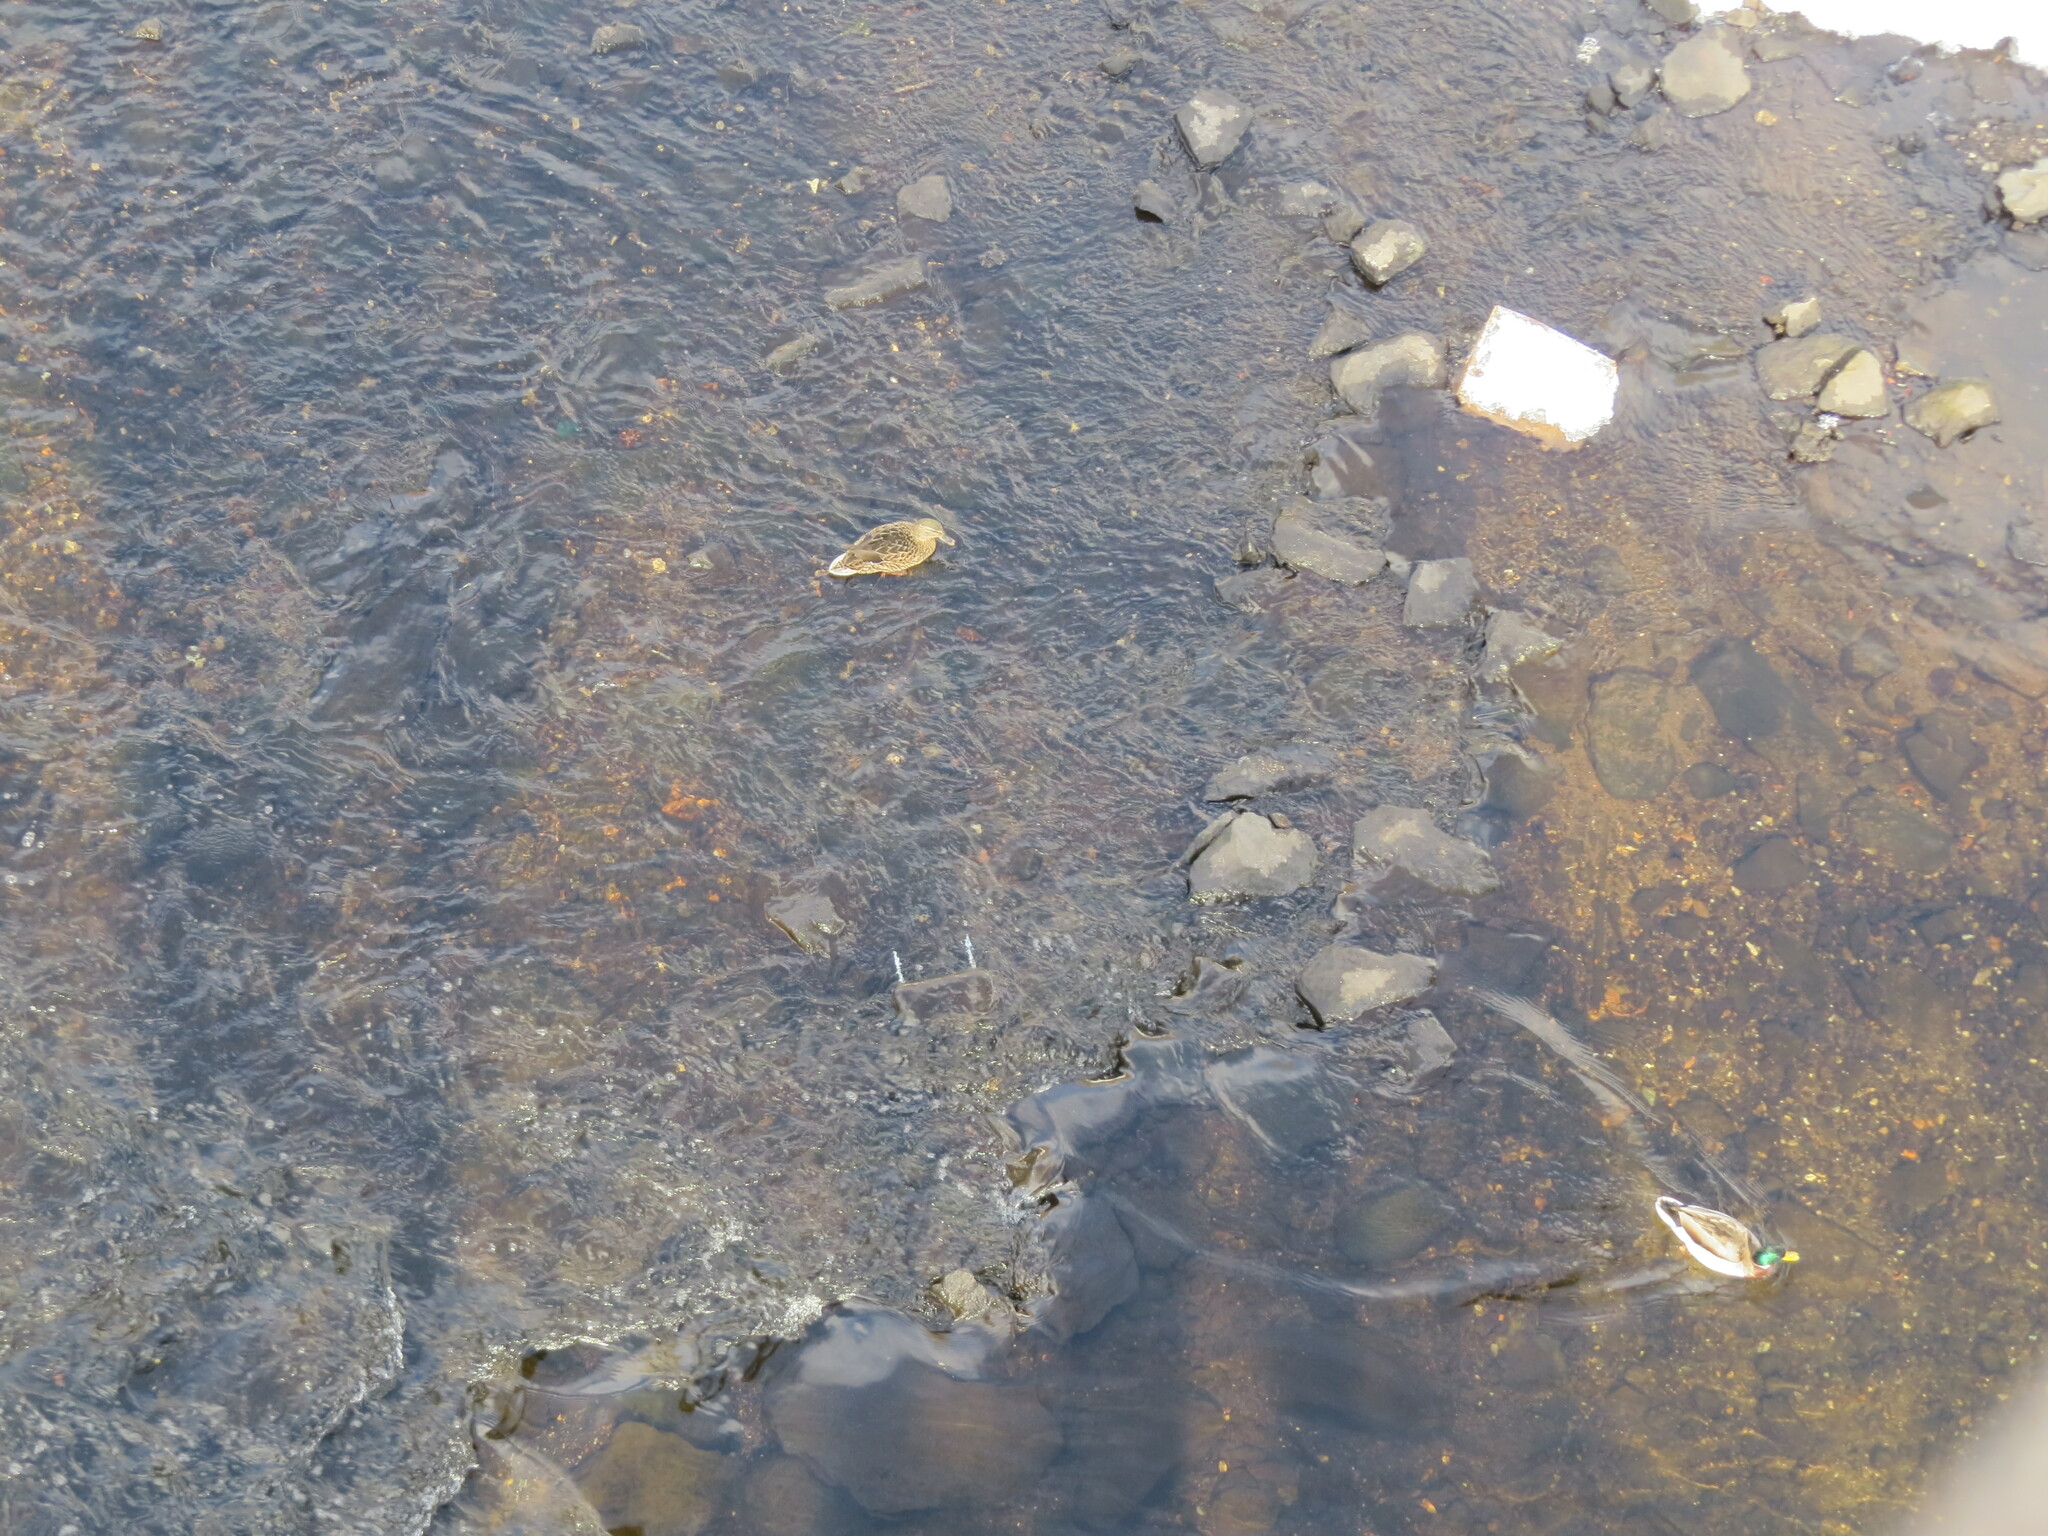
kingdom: Animalia
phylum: Chordata
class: Aves
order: Anseriformes
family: Anatidae
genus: Anas
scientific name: Anas platyrhynchos
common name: Mallard
